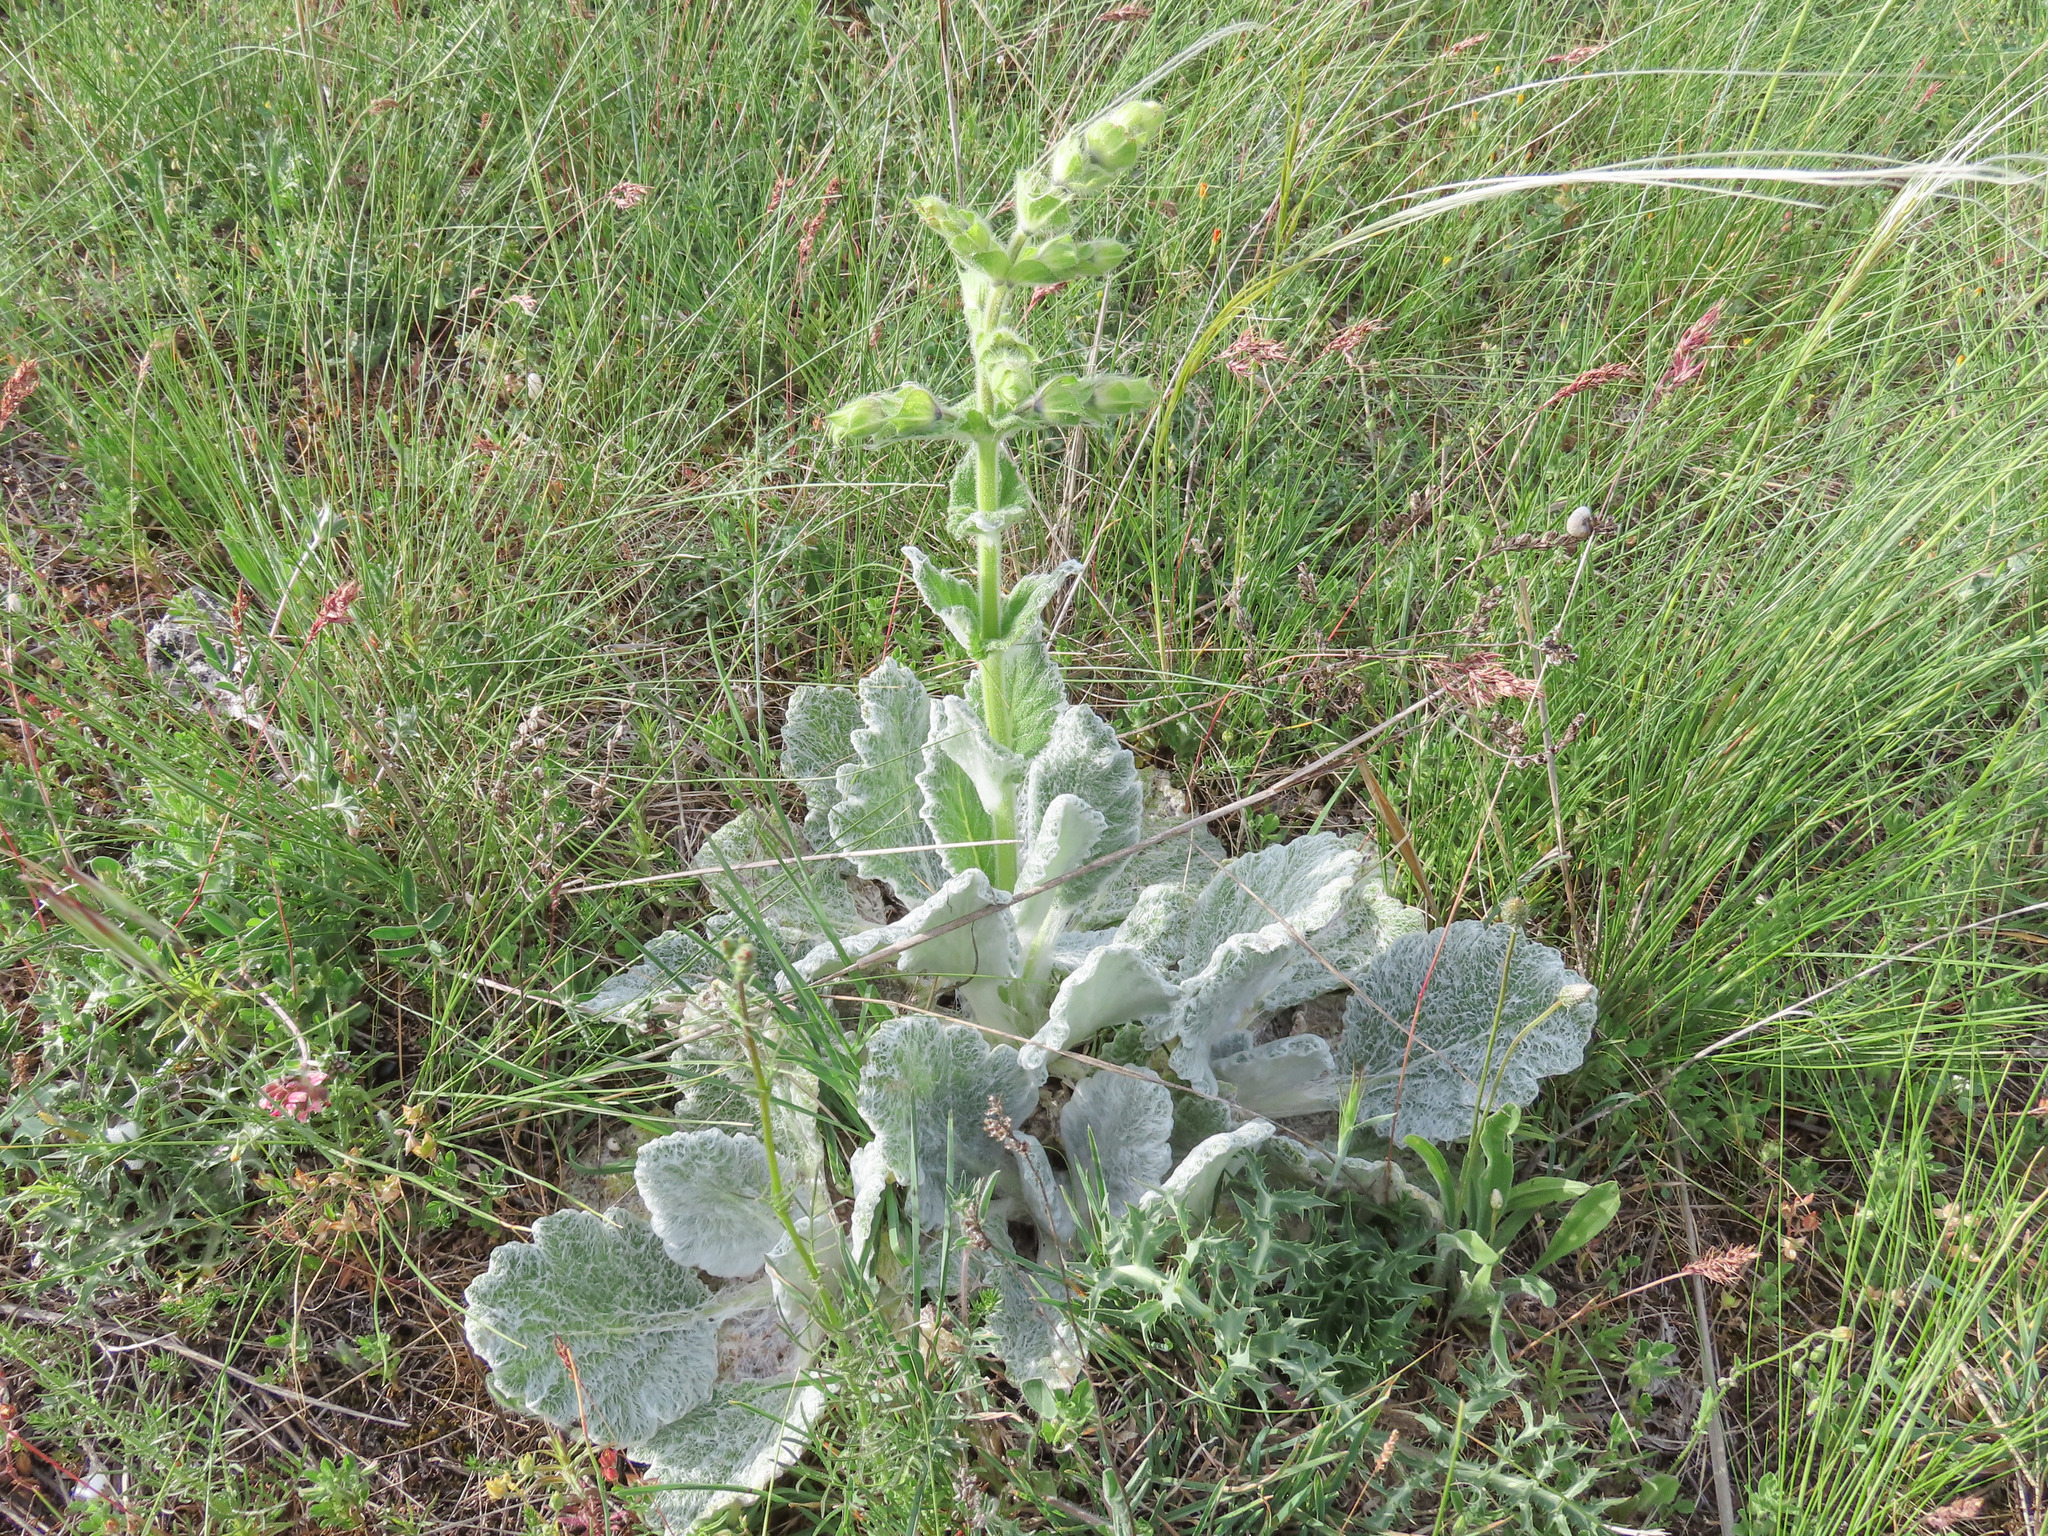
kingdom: Plantae
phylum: Tracheophyta
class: Magnoliopsida
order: Lamiales
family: Lamiaceae
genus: Salvia
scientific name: Salvia argentea
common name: Silver sage
